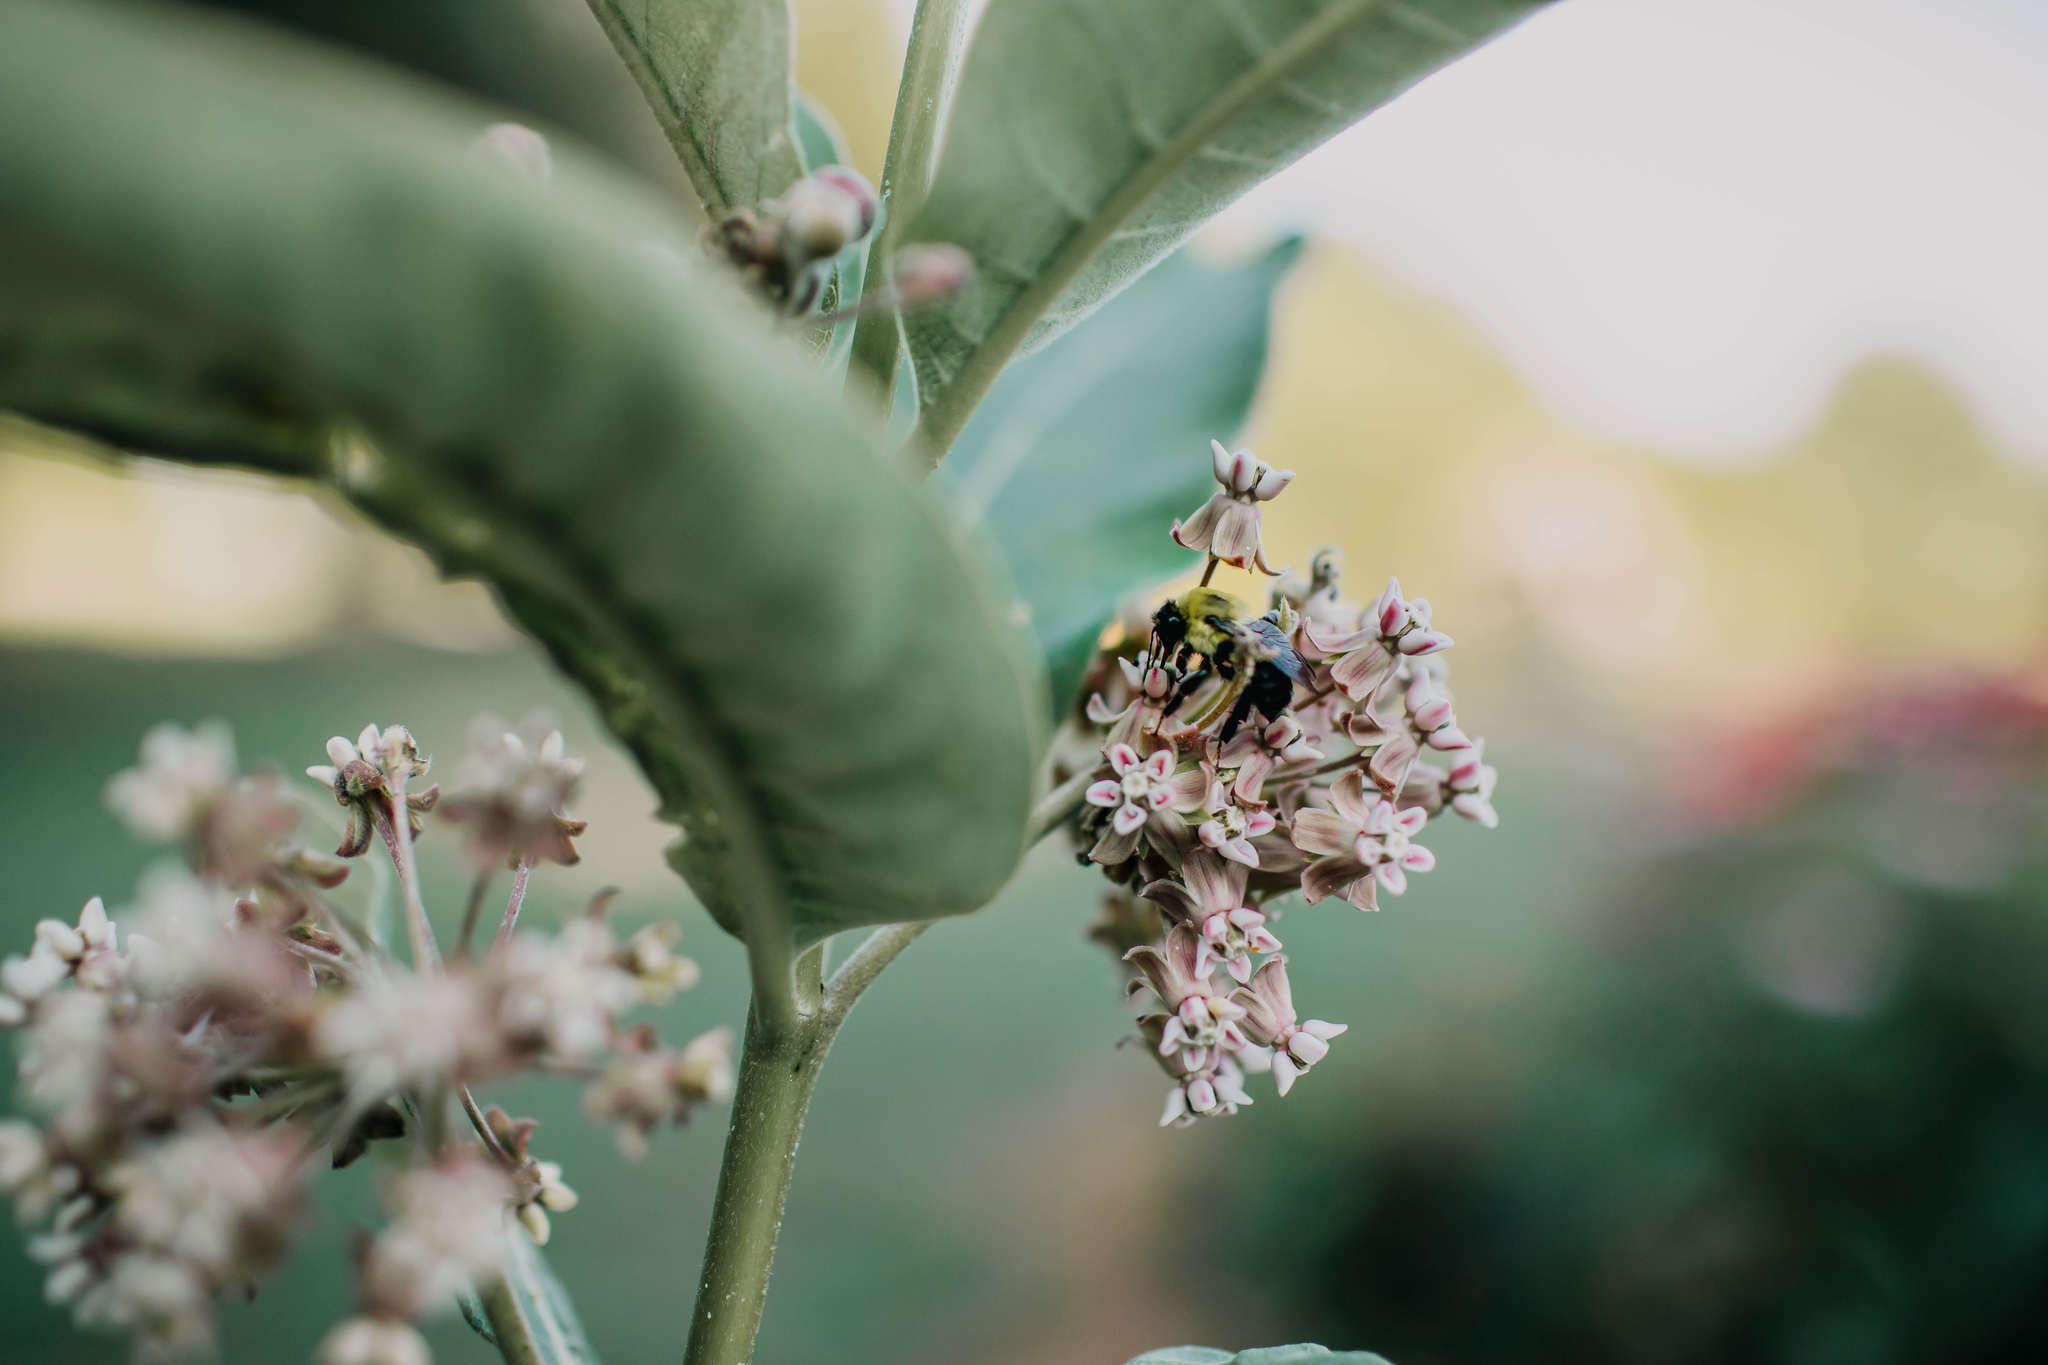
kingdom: Animalia
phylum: Arthropoda
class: Insecta
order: Hymenoptera
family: Apidae
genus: Bombus
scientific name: Bombus griseocollis
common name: Brown-belted bumble bee
